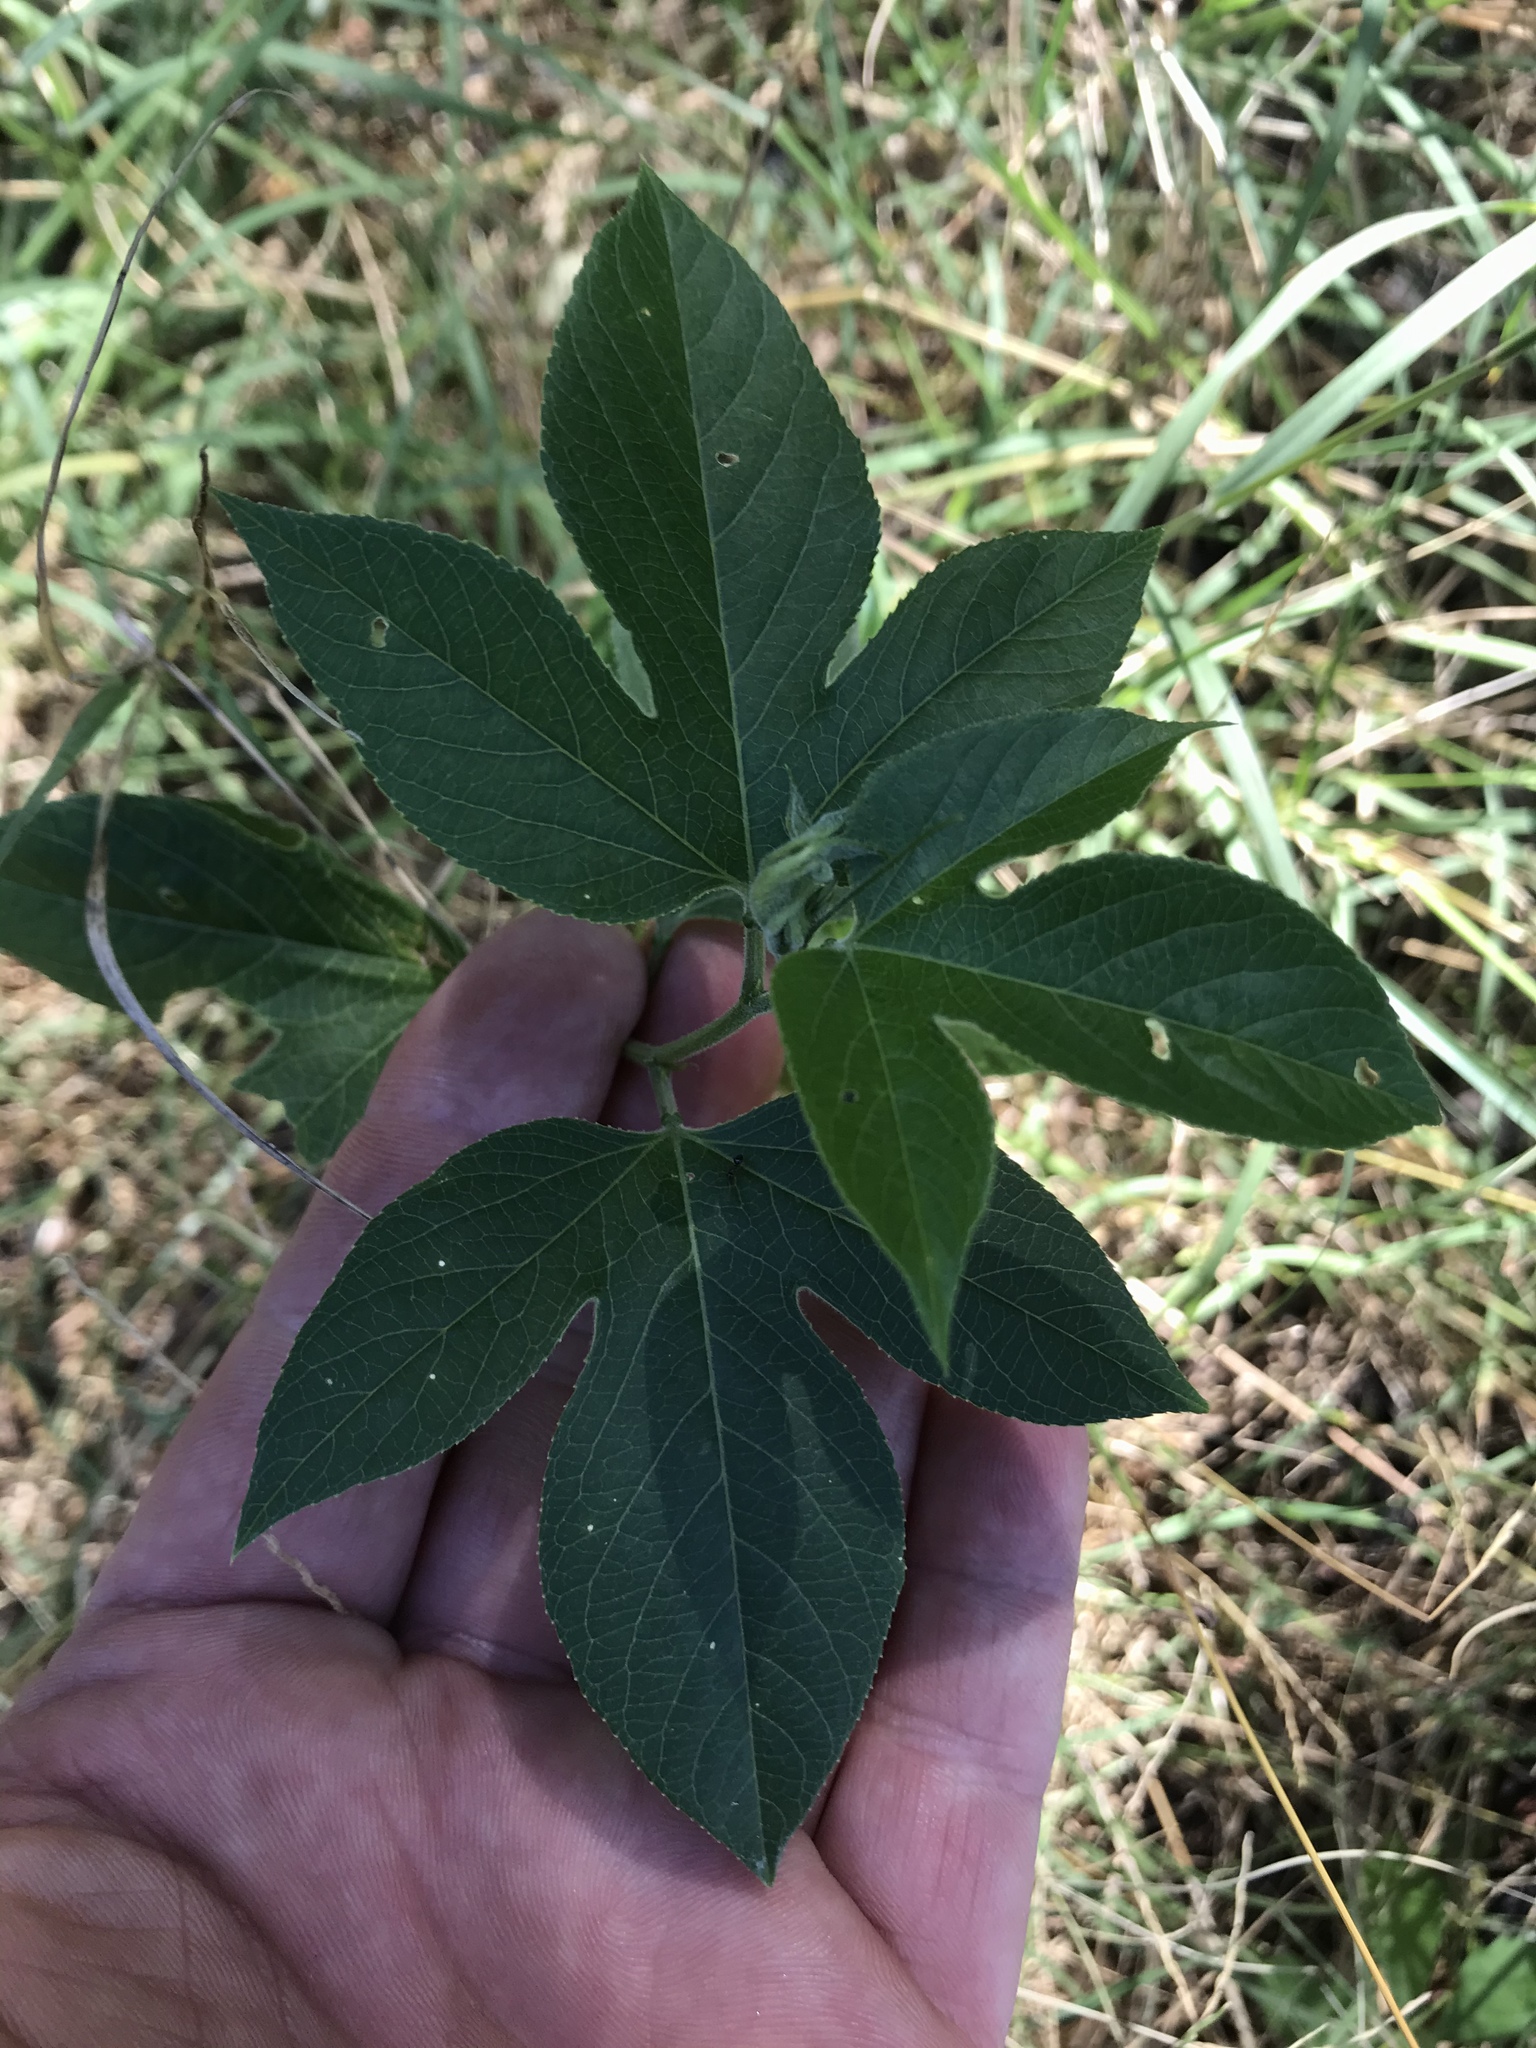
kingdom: Plantae
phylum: Tracheophyta
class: Magnoliopsida
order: Malpighiales
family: Passifloraceae
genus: Passiflora
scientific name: Passiflora incarnata
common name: Apricot-vine
